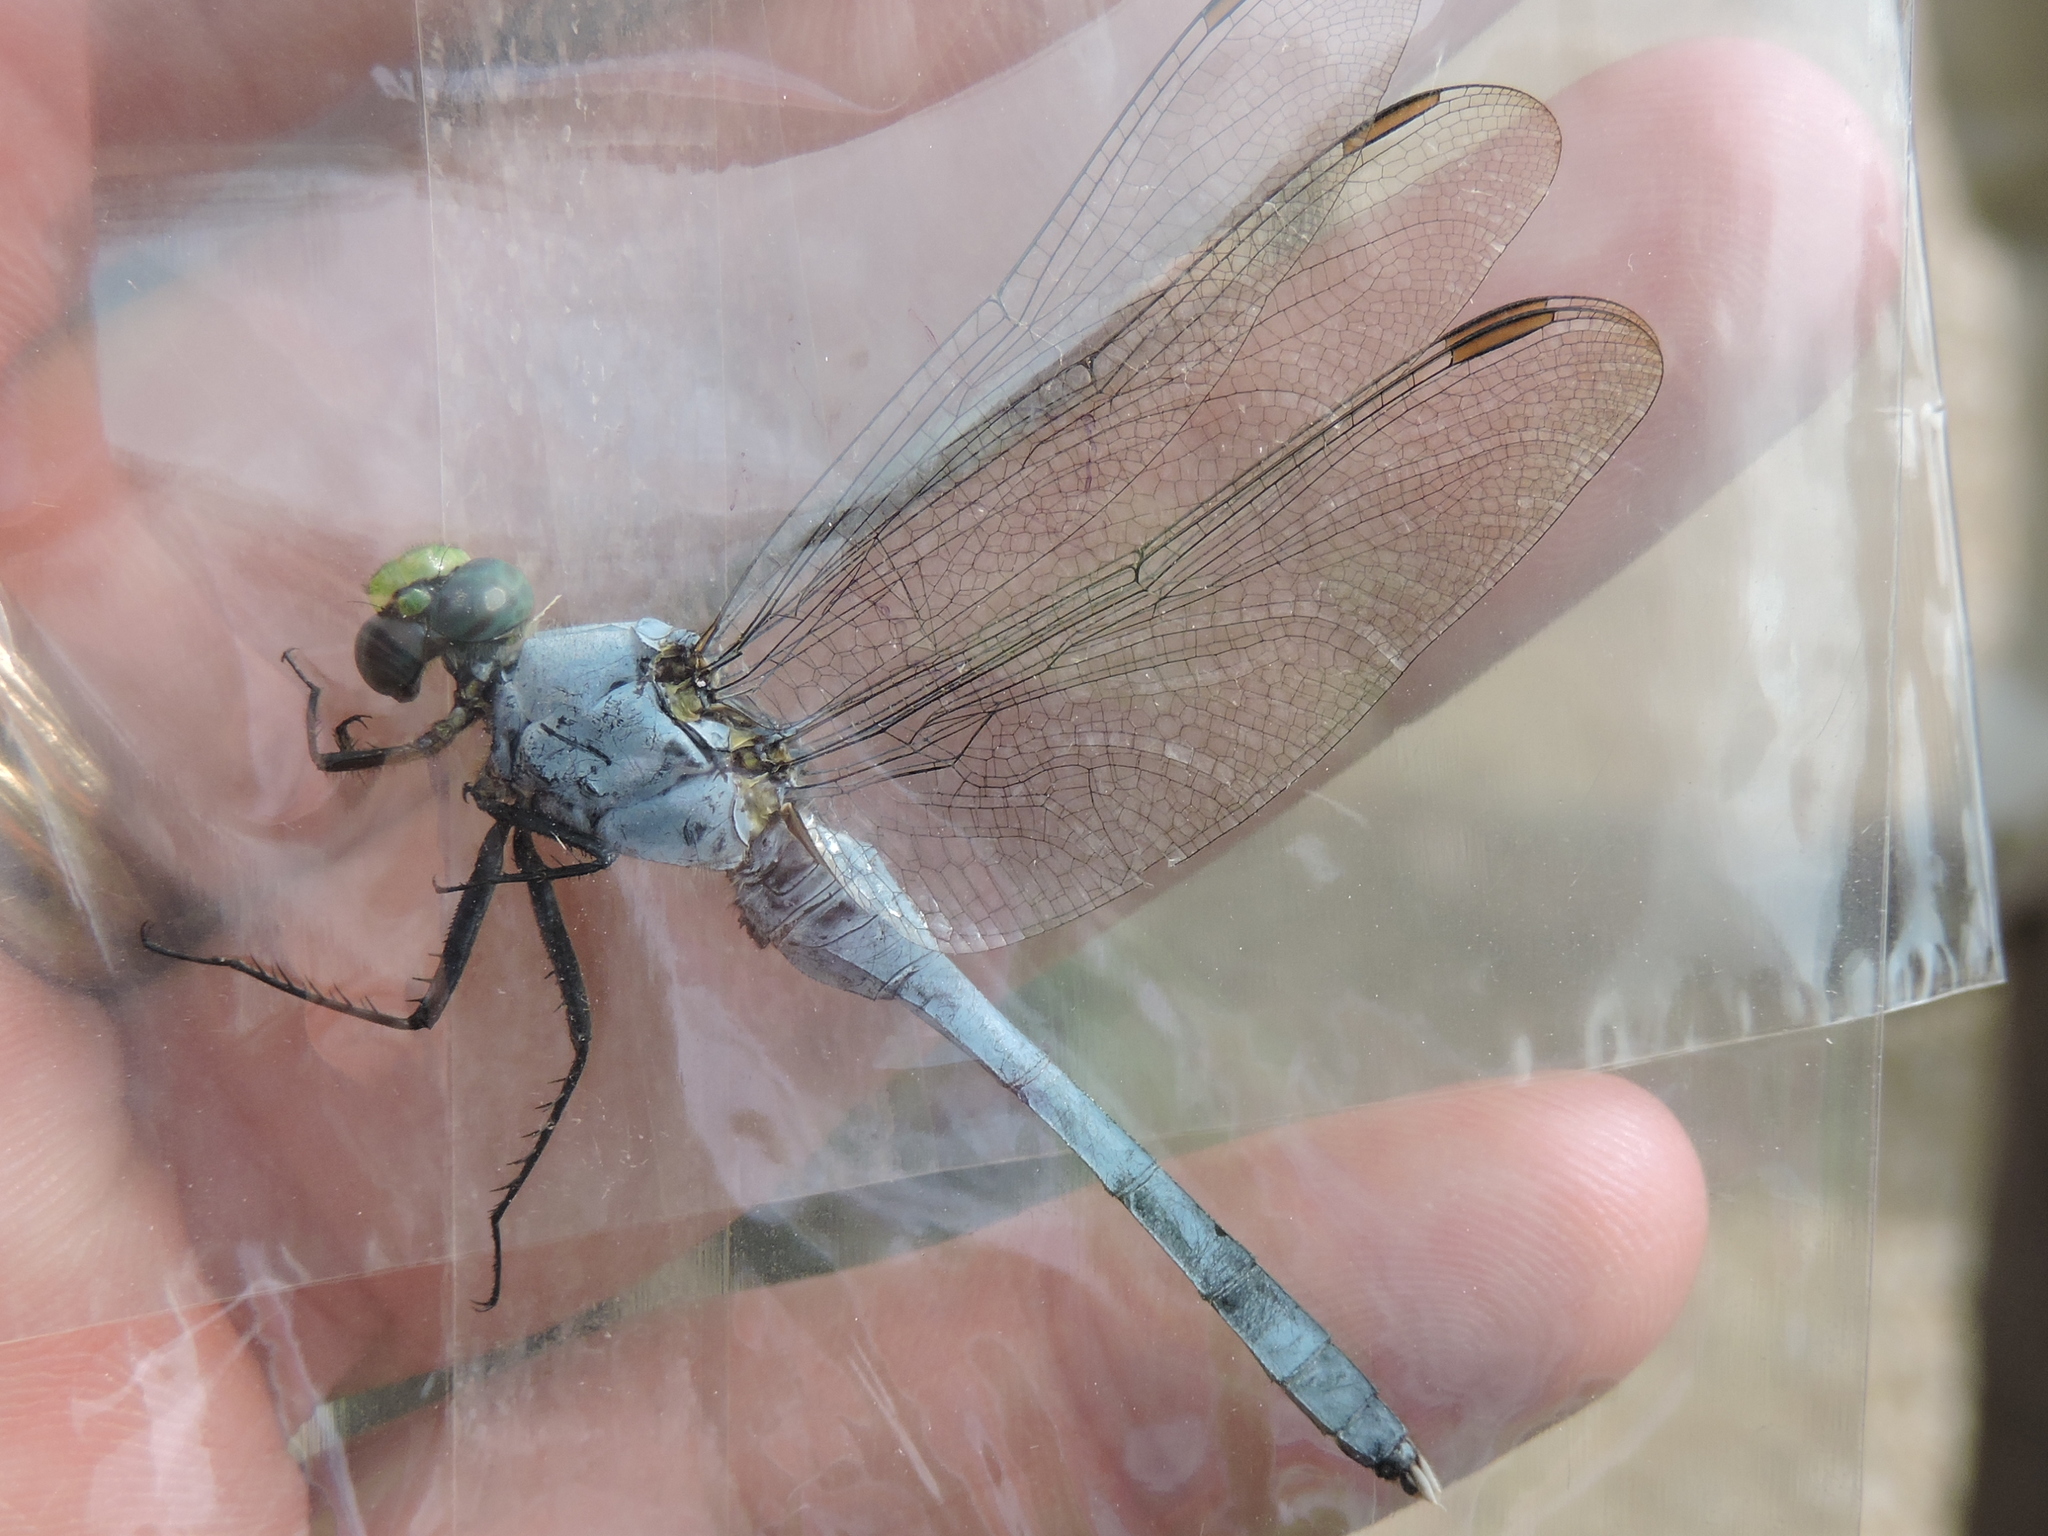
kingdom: Animalia
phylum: Arthropoda
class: Insecta
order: Odonata
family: Libellulidae
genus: Erythemis
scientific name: Erythemis simplicicollis
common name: Eastern pondhawk
